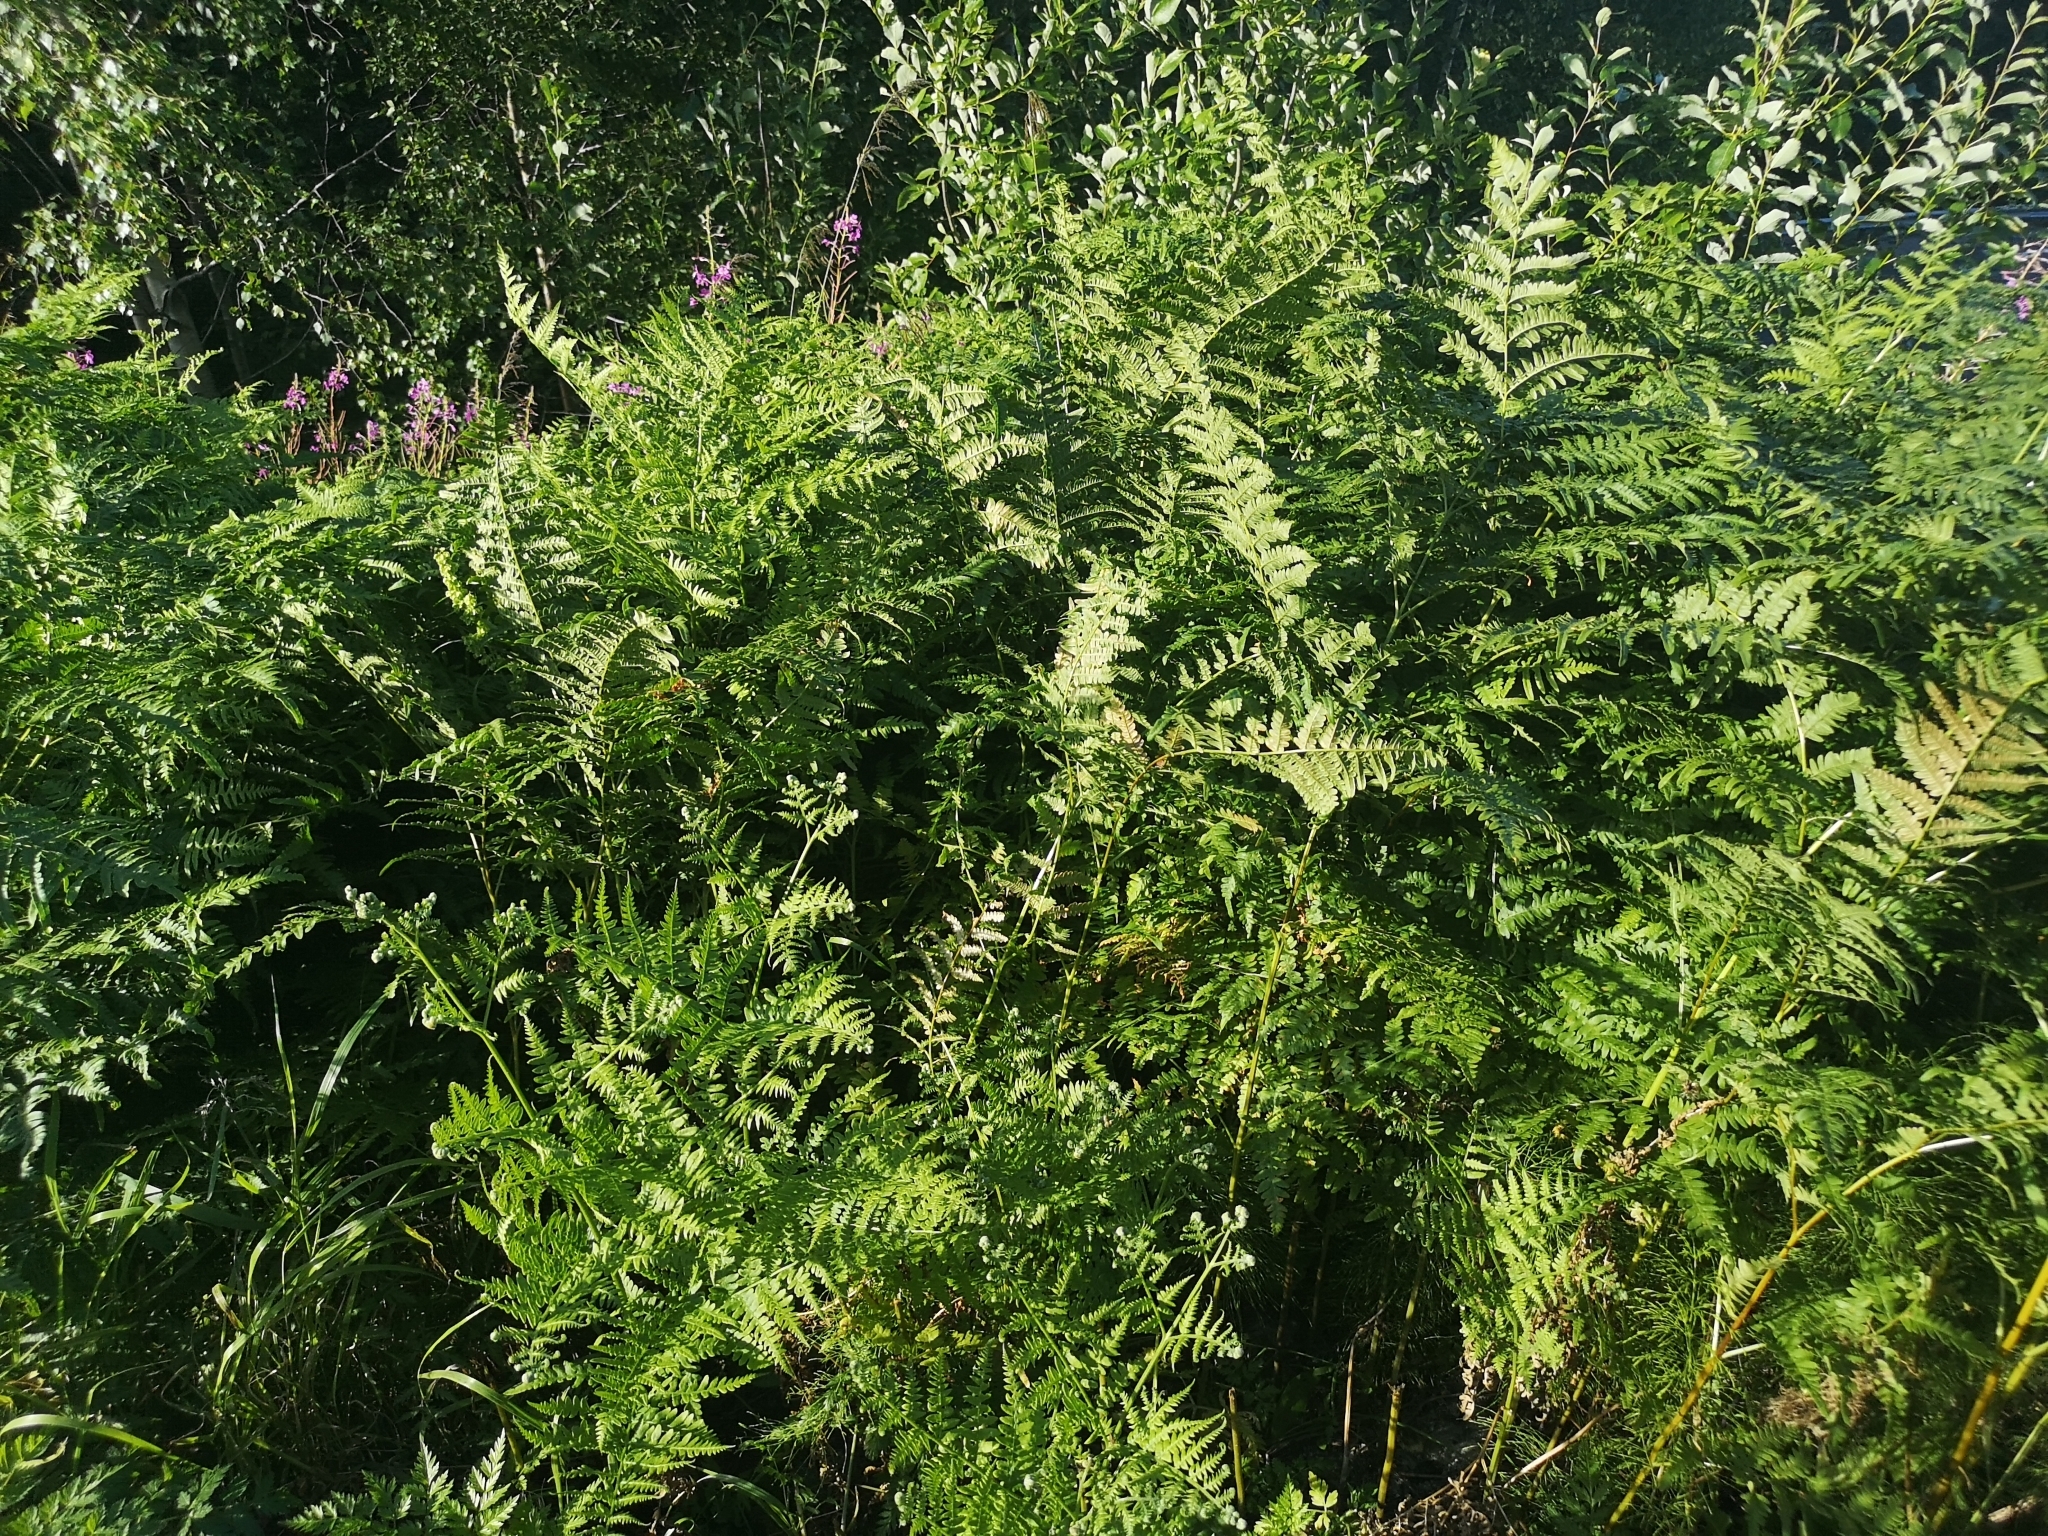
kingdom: Plantae
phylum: Tracheophyta
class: Polypodiopsida
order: Polypodiales
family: Dennstaedtiaceae
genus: Pteridium
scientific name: Pteridium aquilinum
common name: Bracken
